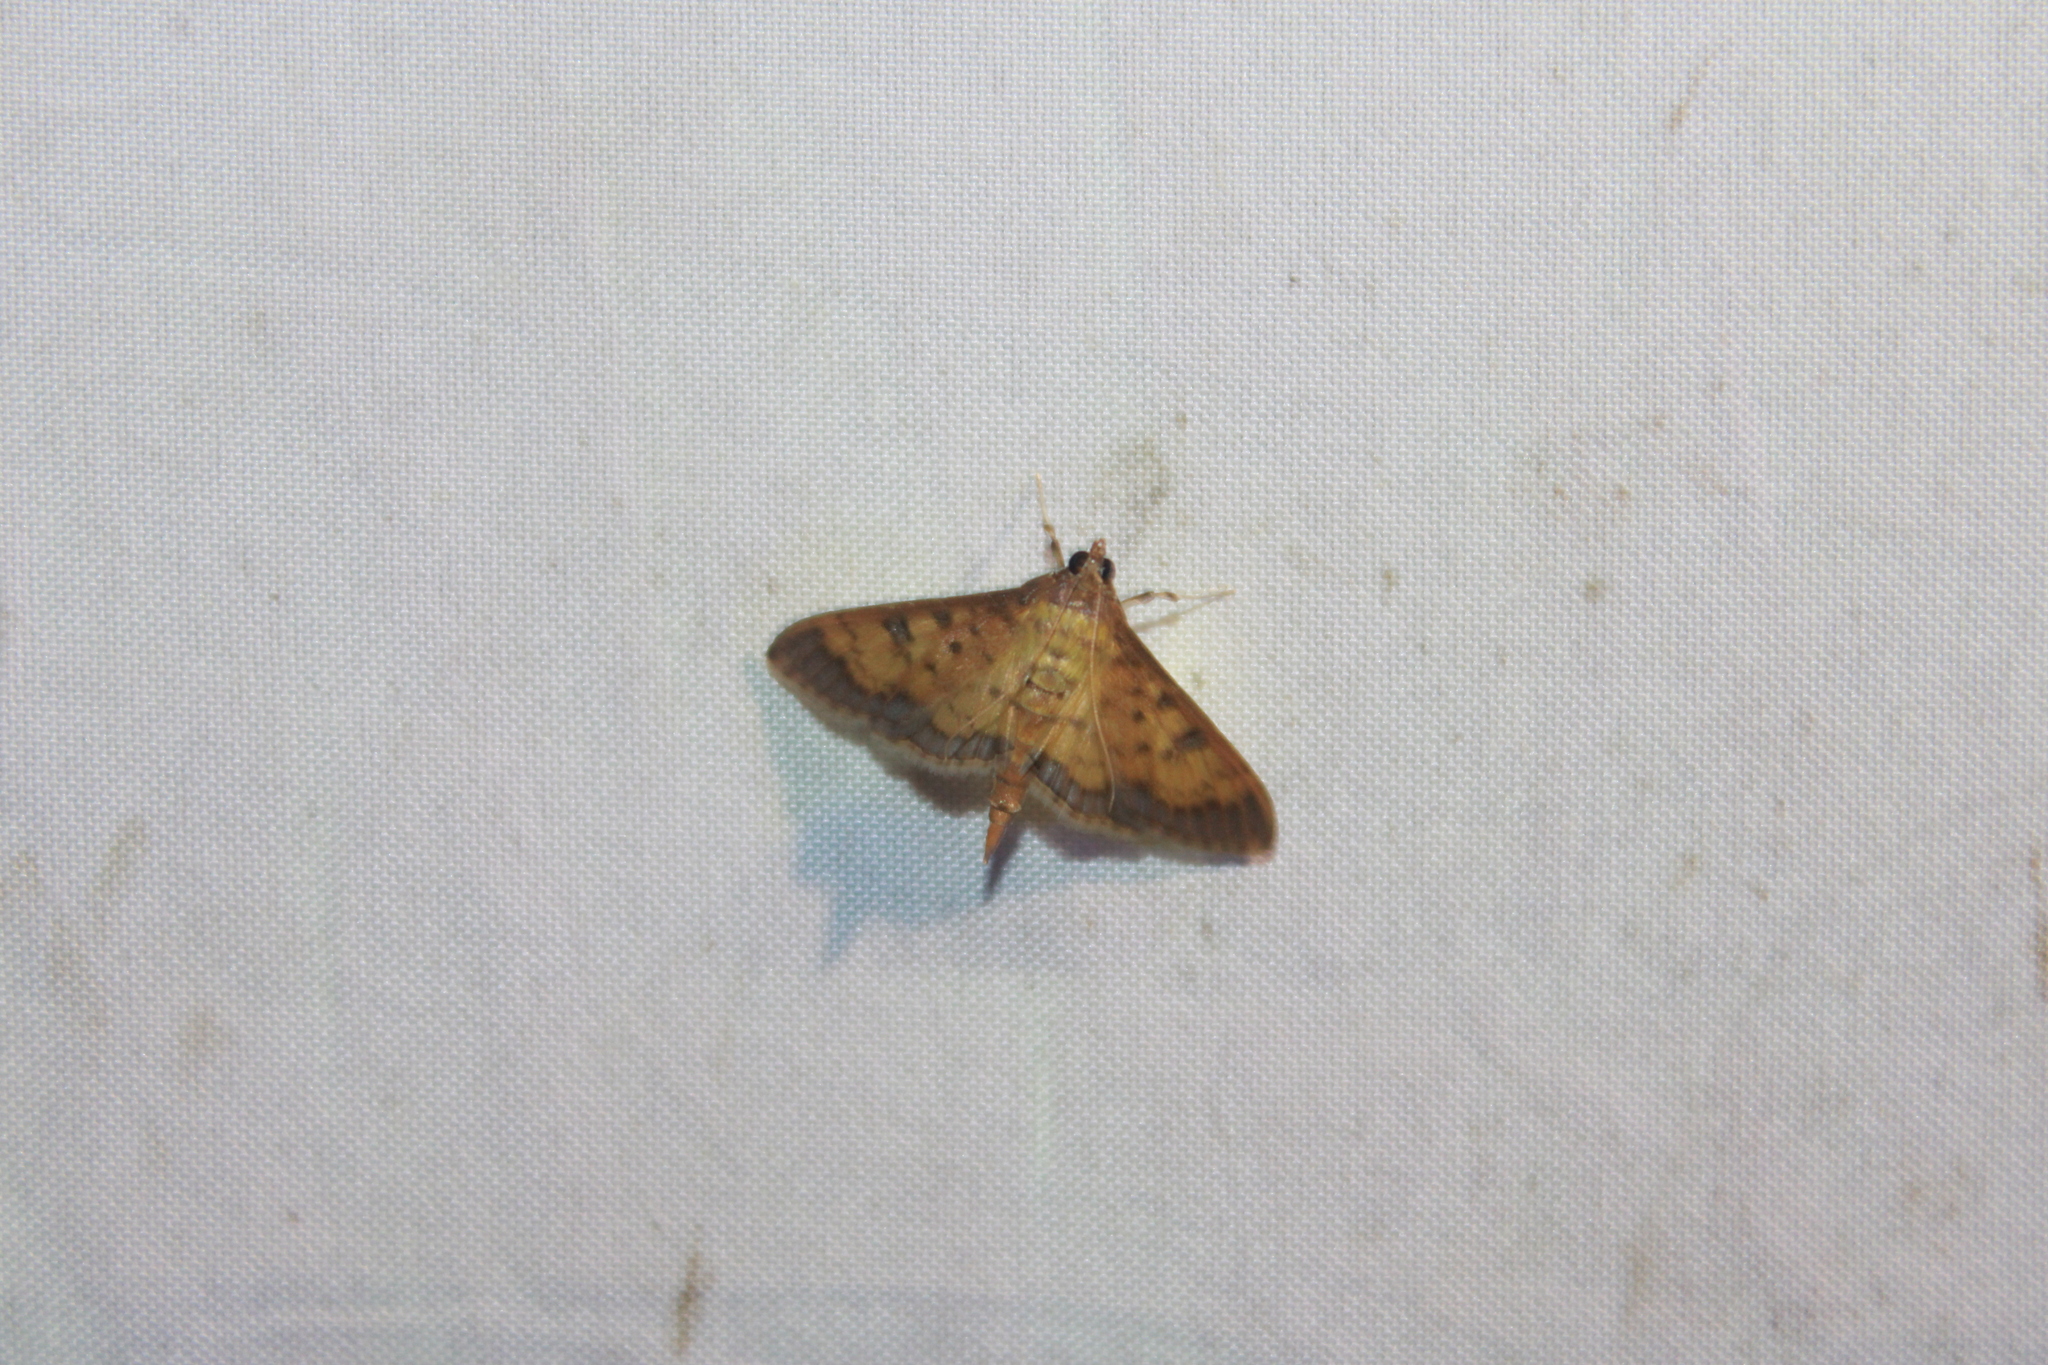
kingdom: Animalia
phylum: Arthropoda
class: Insecta
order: Lepidoptera
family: Crambidae
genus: Diacme
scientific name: Diacme phyllisalis
